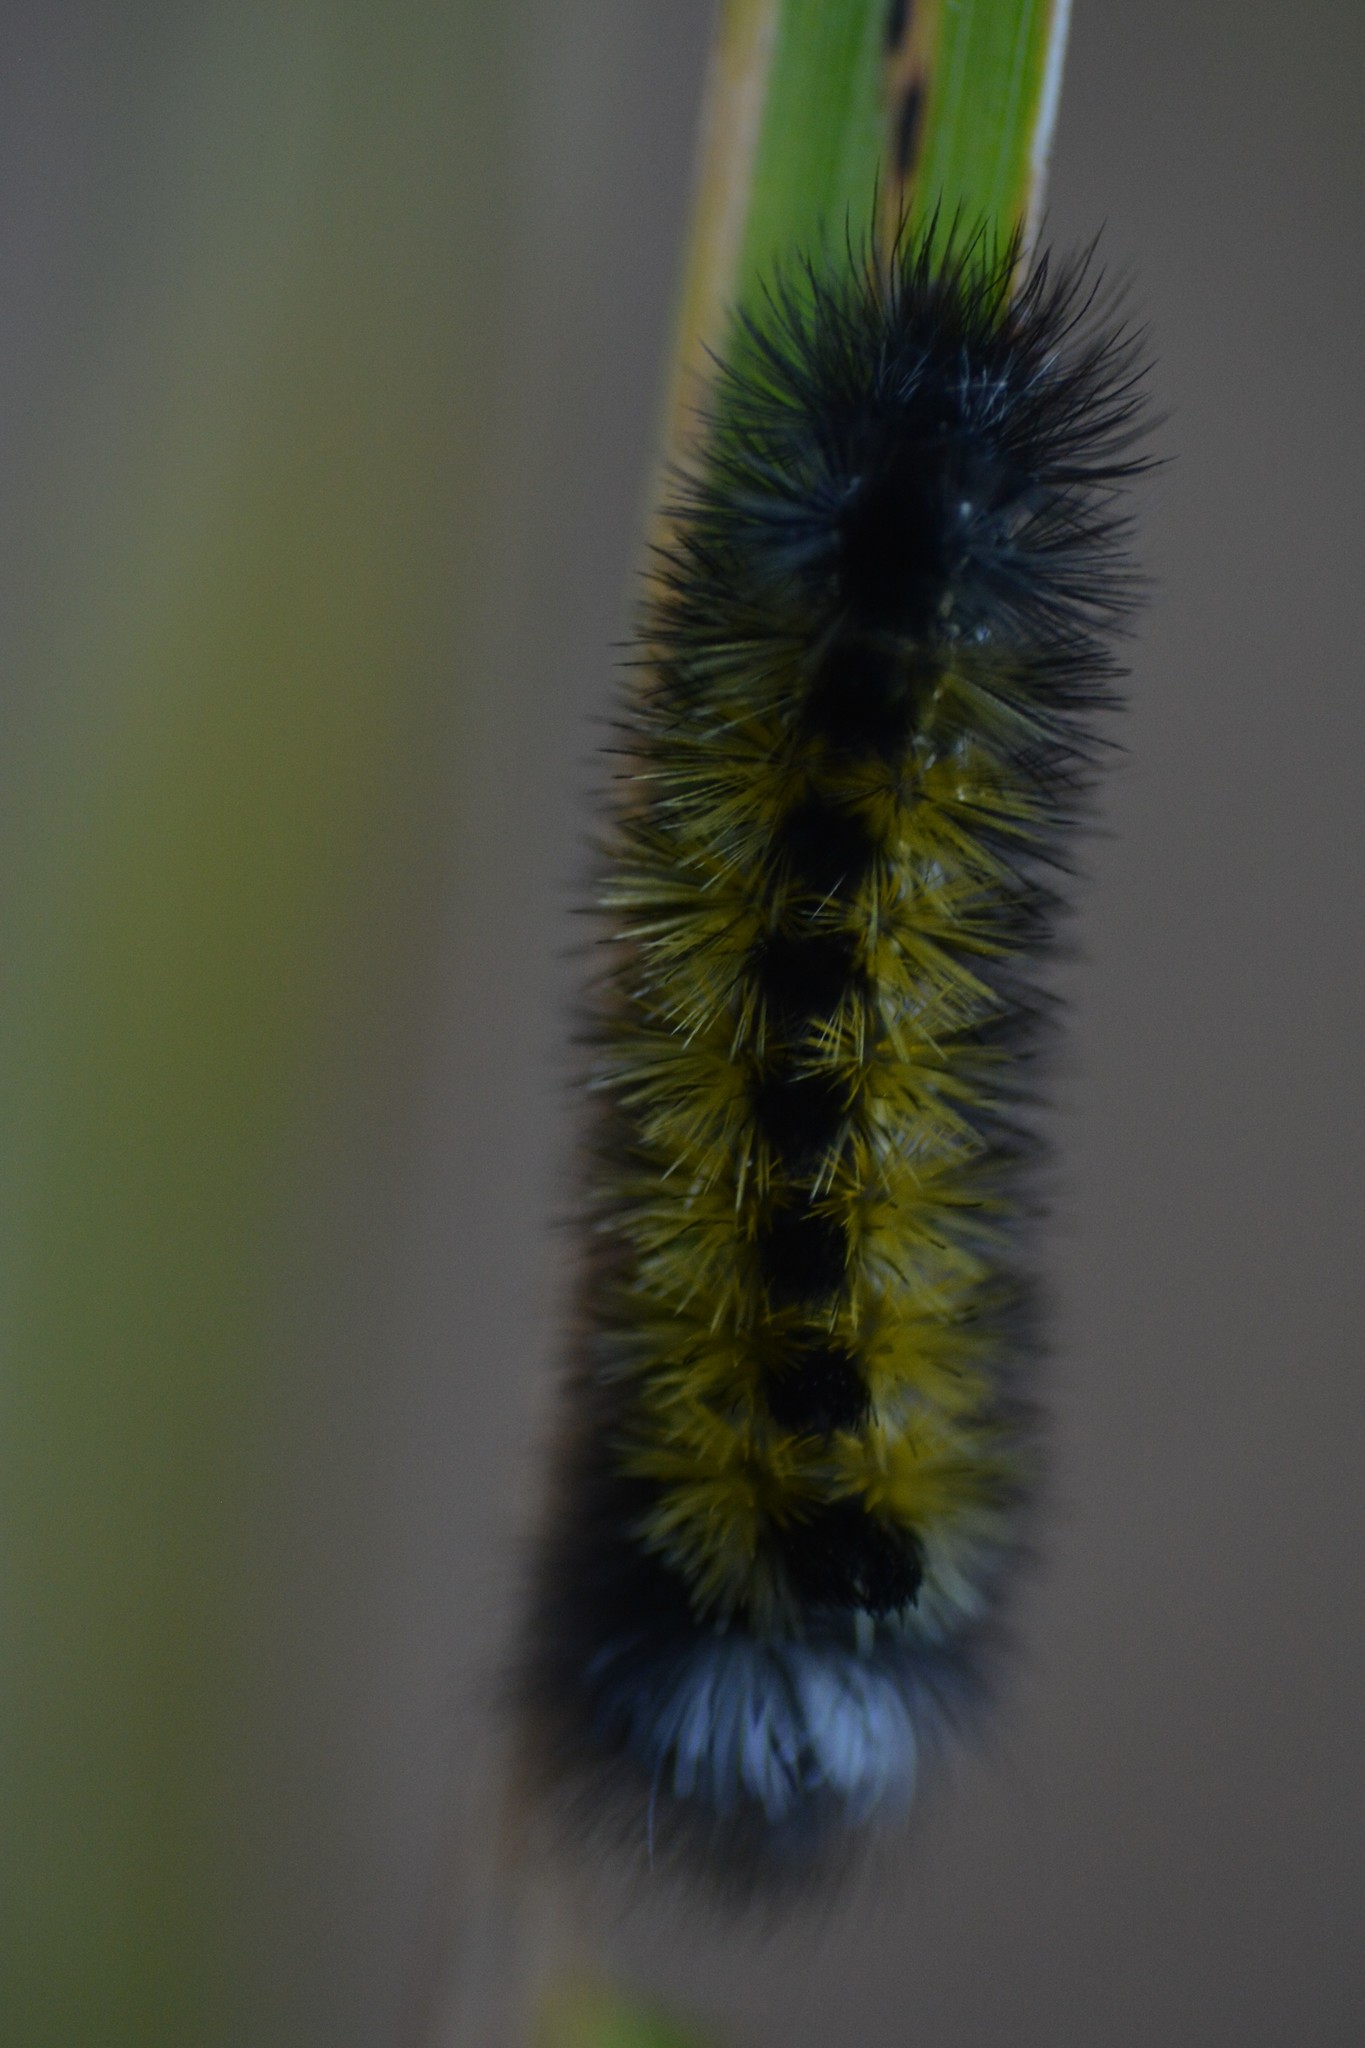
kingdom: Animalia
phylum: Arthropoda
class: Insecta
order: Lepidoptera
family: Erebidae
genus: Ctenucha
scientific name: Ctenucha virginica
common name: Virginia ctenucha moth
